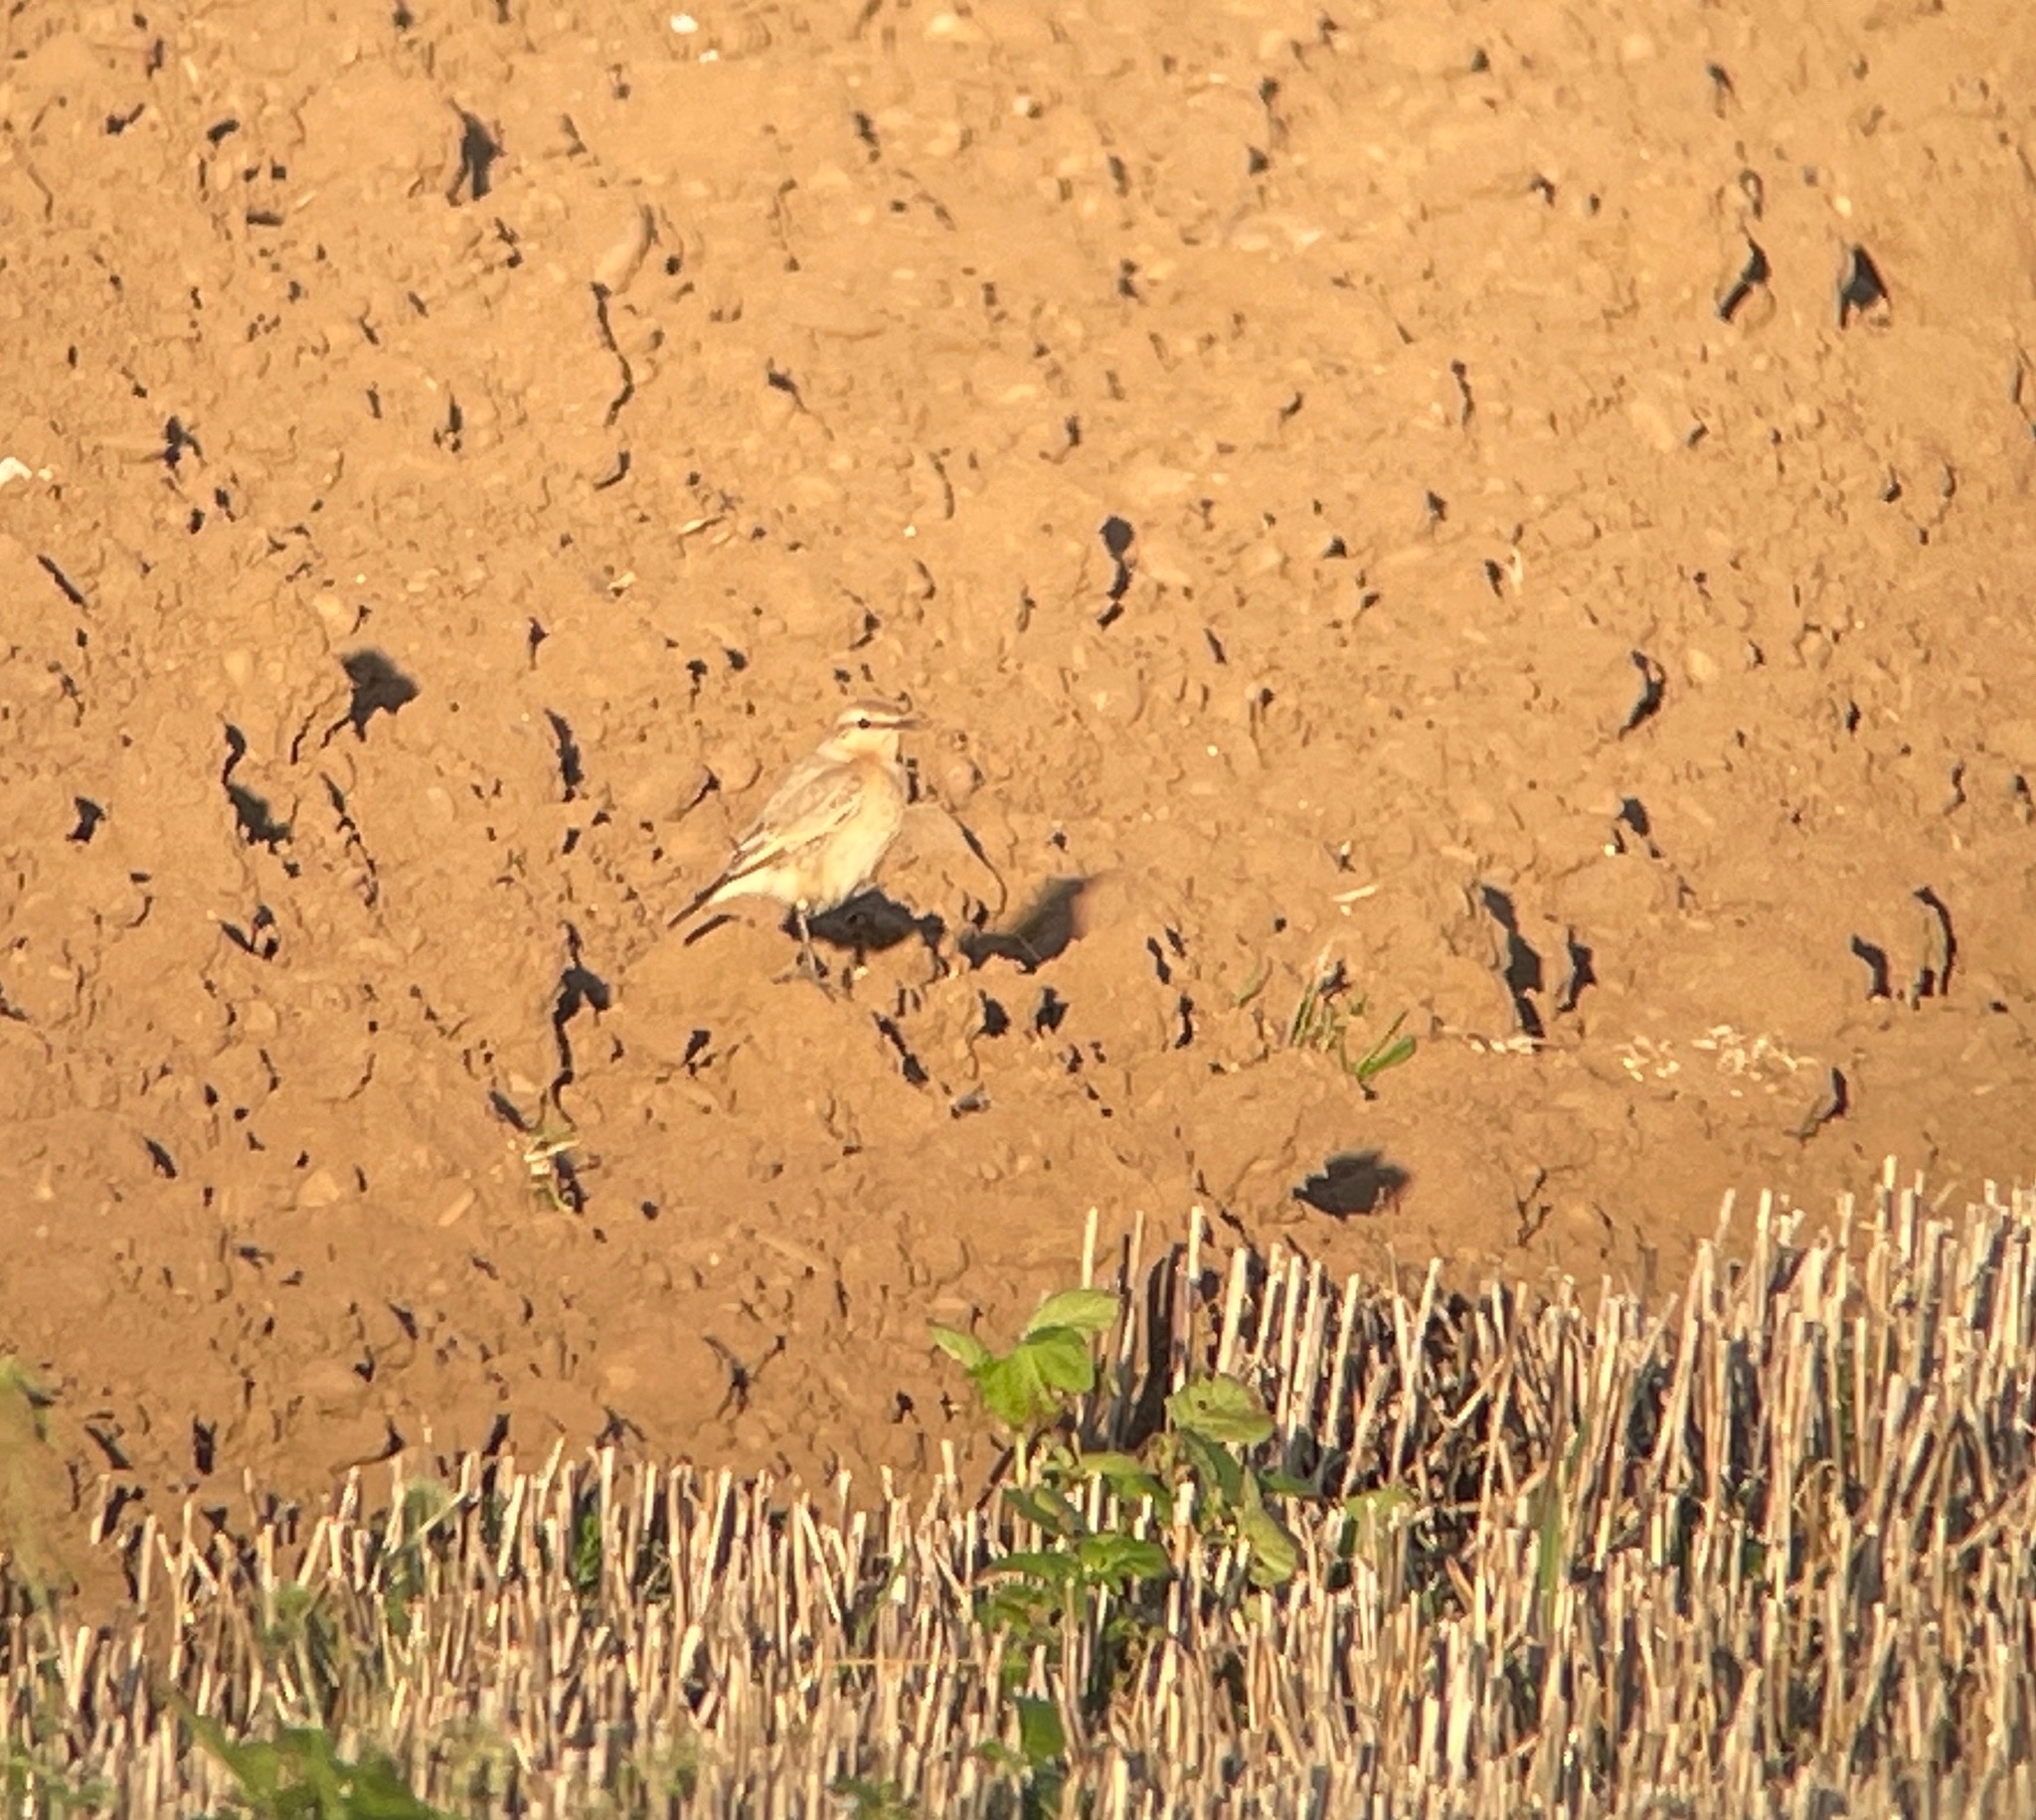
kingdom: Animalia
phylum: Chordata
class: Aves
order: Passeriformes
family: Muscicapidae
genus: Oenanthe
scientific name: Oenanthe isabellina
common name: Isabelline wheatear
